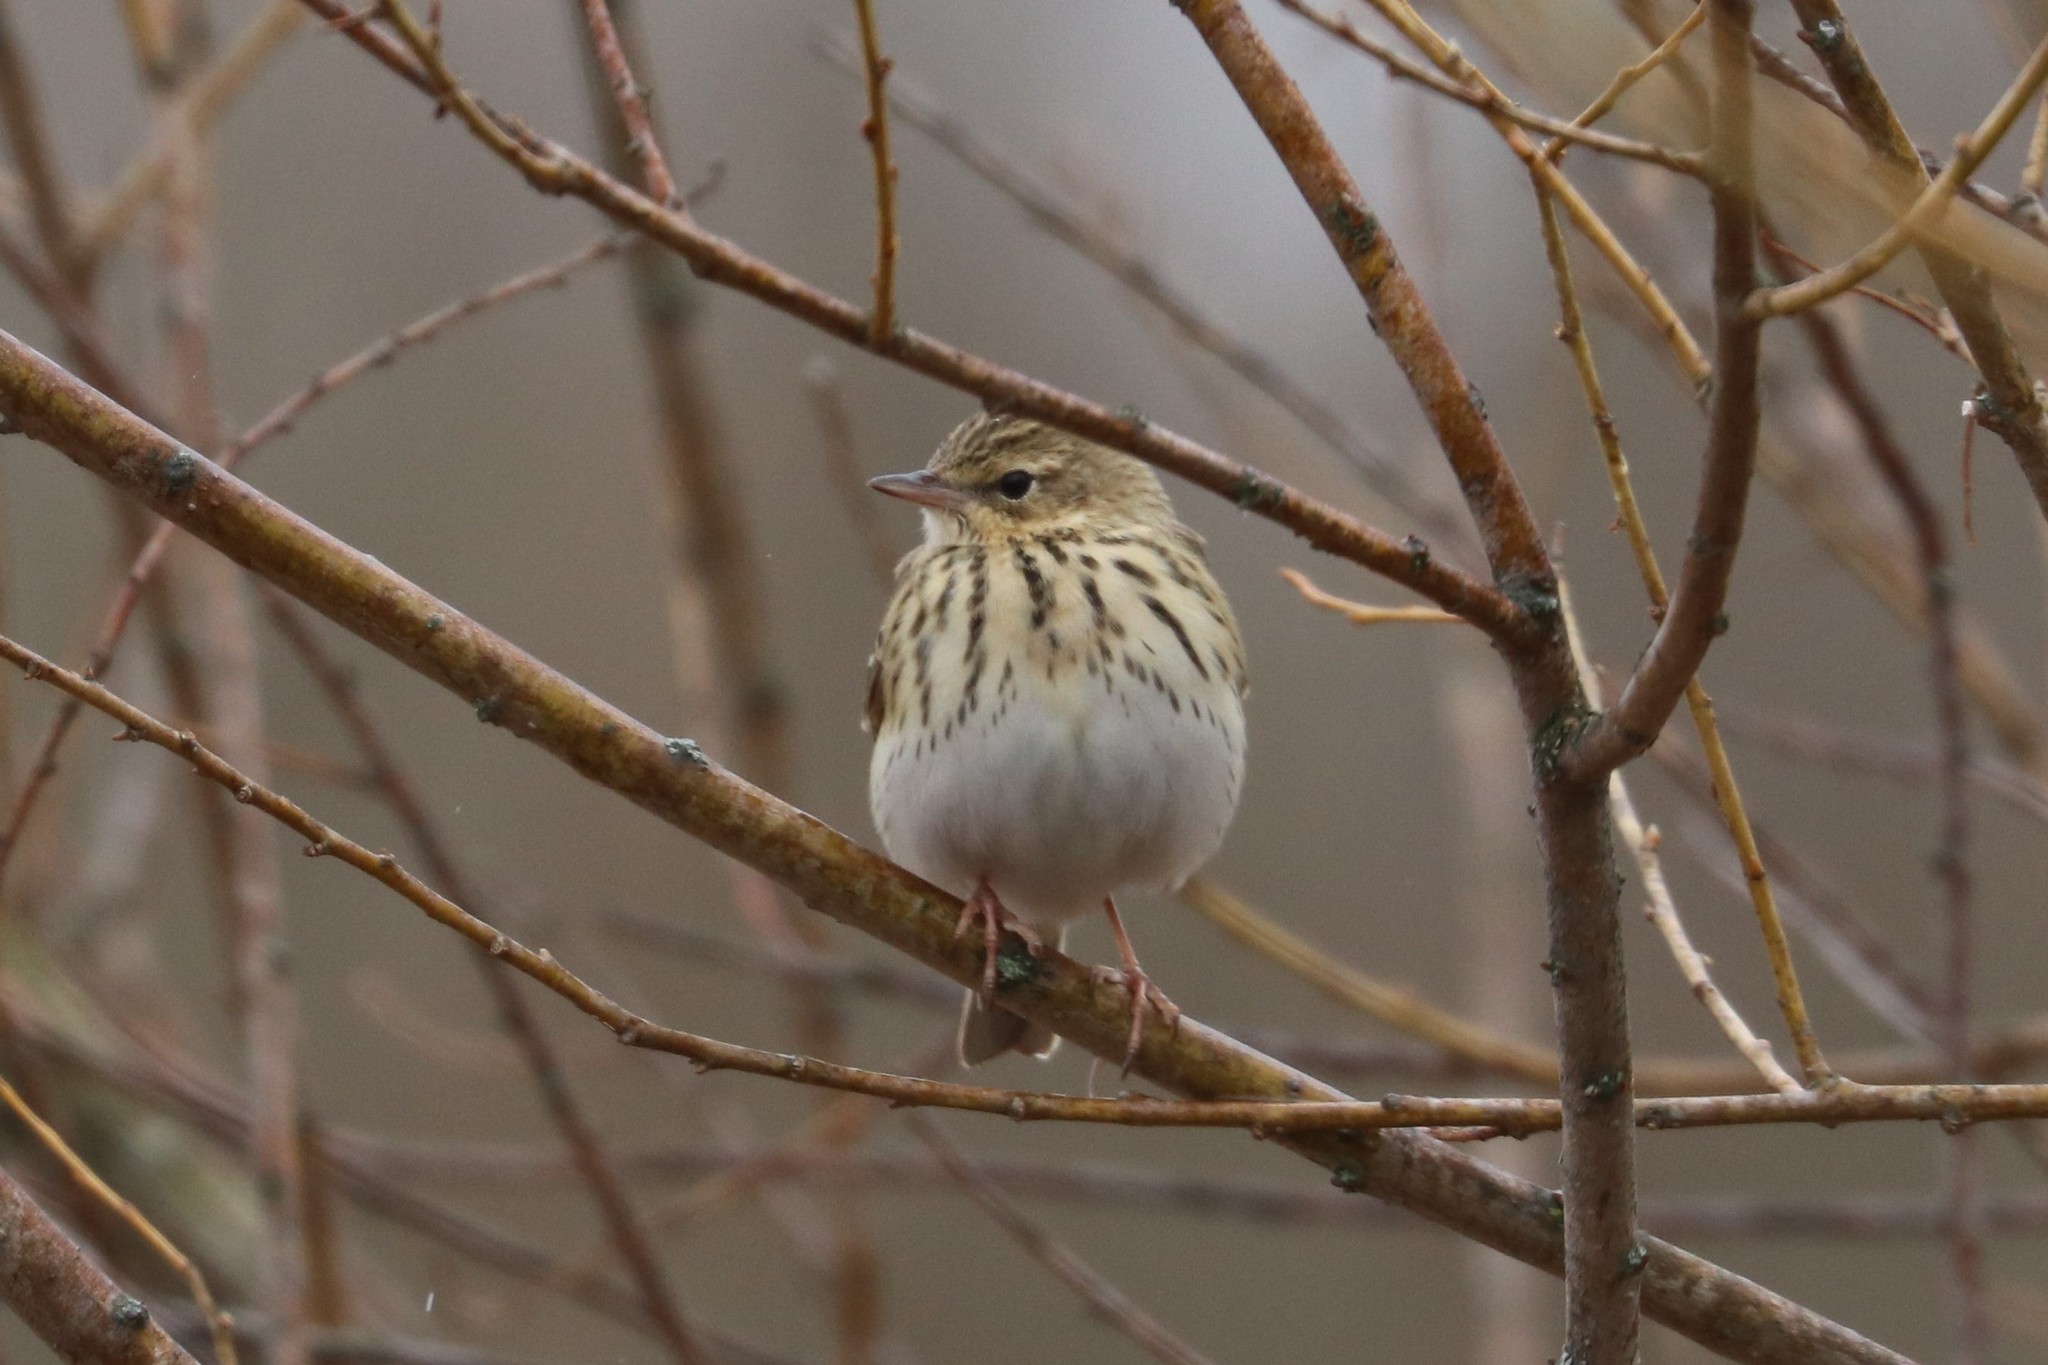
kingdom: Animalia
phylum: Chordata
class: Aves
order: Passeriformes
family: Motacillidae
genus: Anthus
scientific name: Anthus trivialis
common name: Tree pipit
